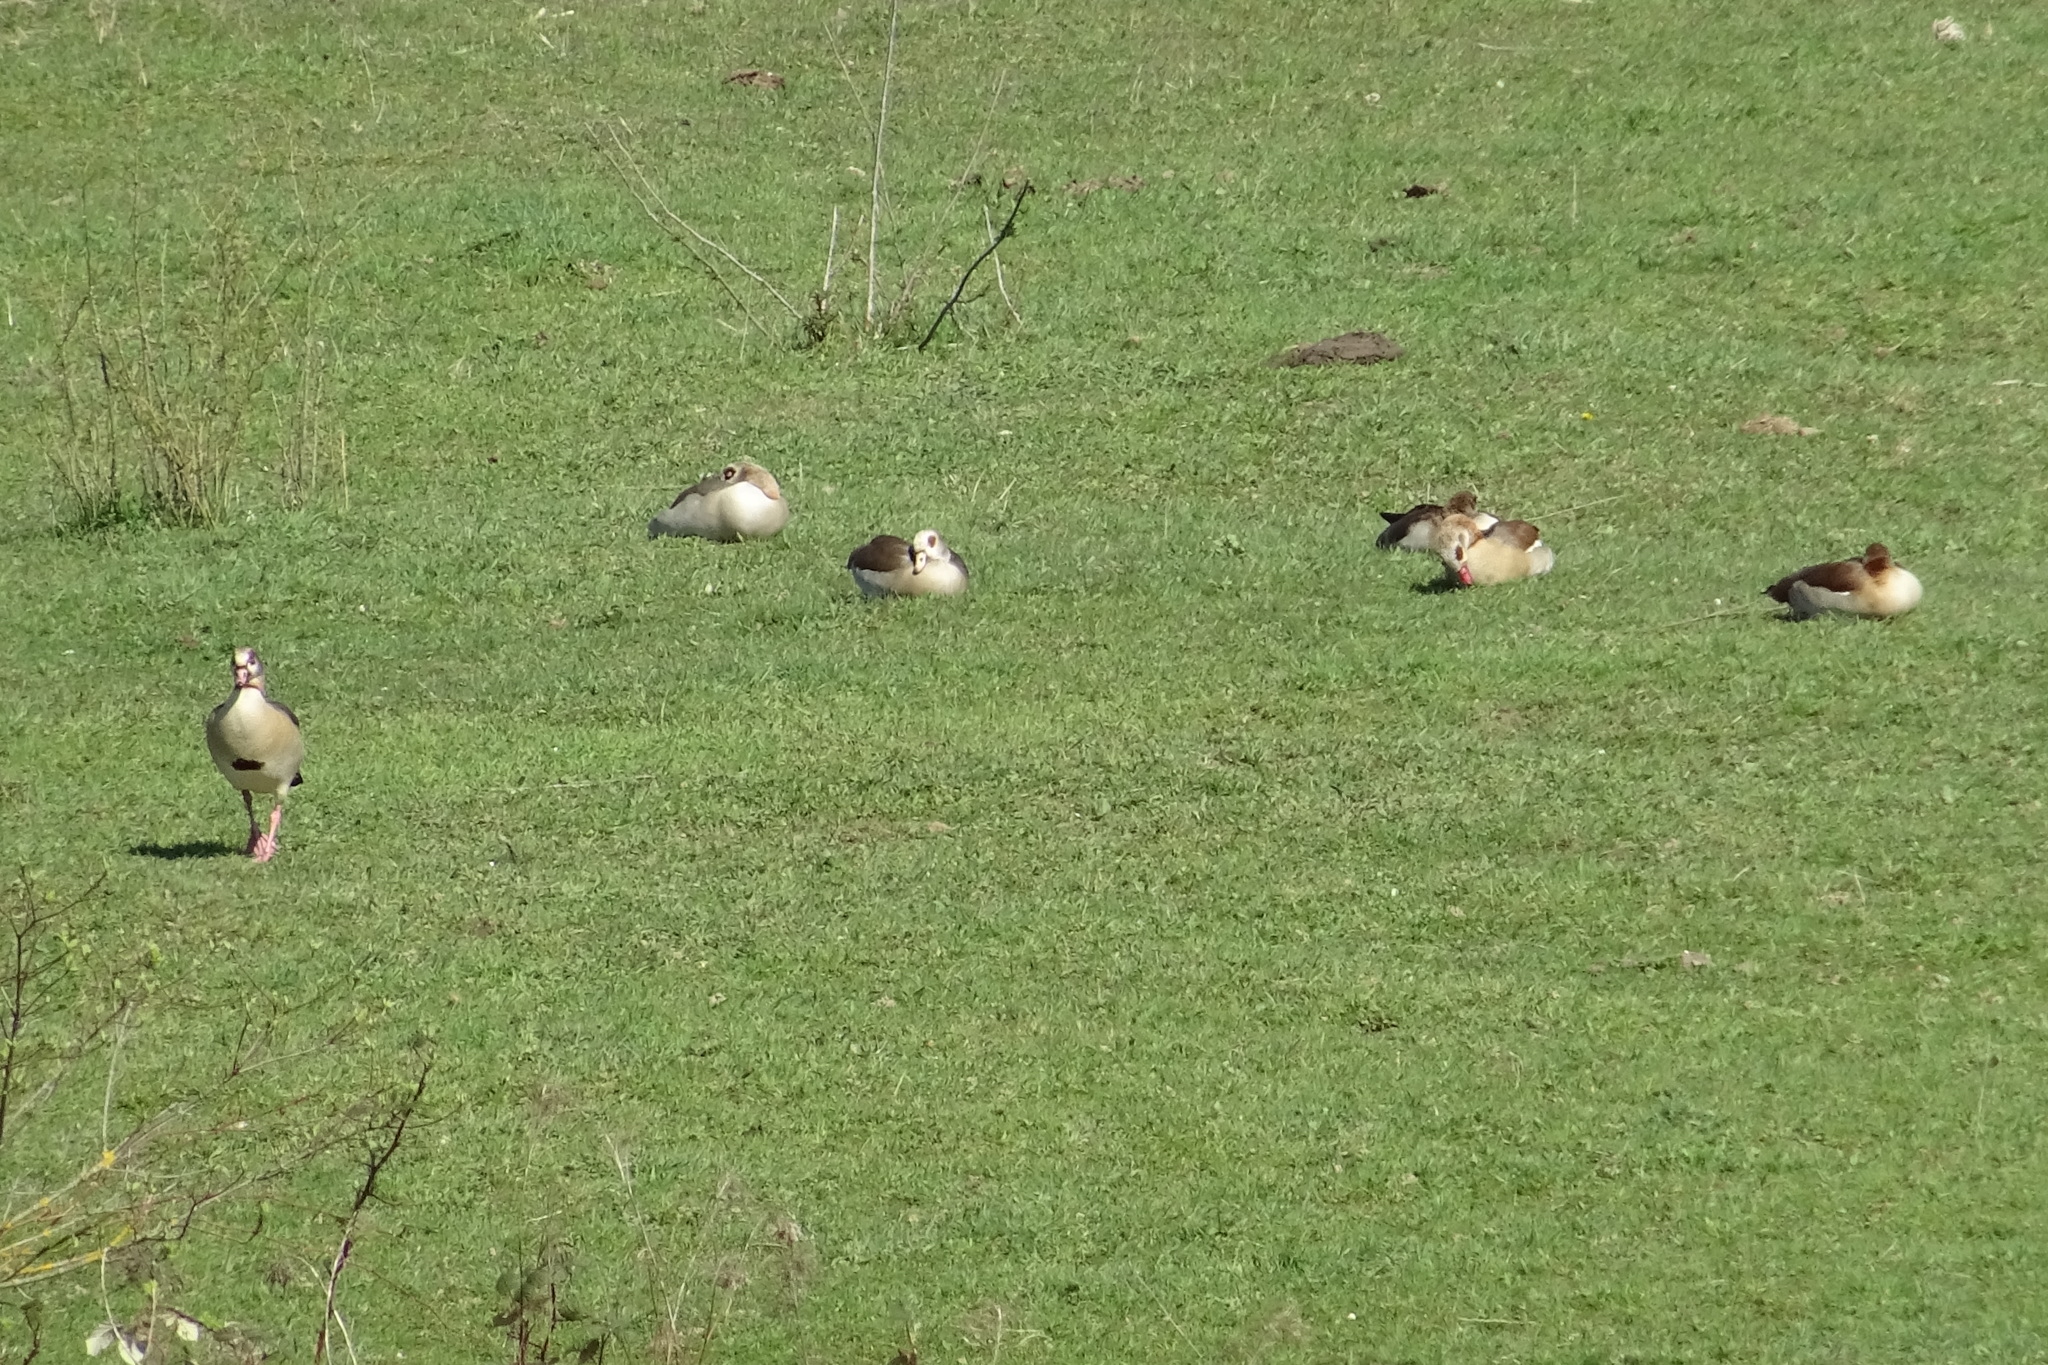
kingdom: Animalia
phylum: Chordata
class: Aves
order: Anseriformes
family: Anatidae
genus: Alopochen
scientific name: Alopochen aegyptiaca
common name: Egyptian goose
